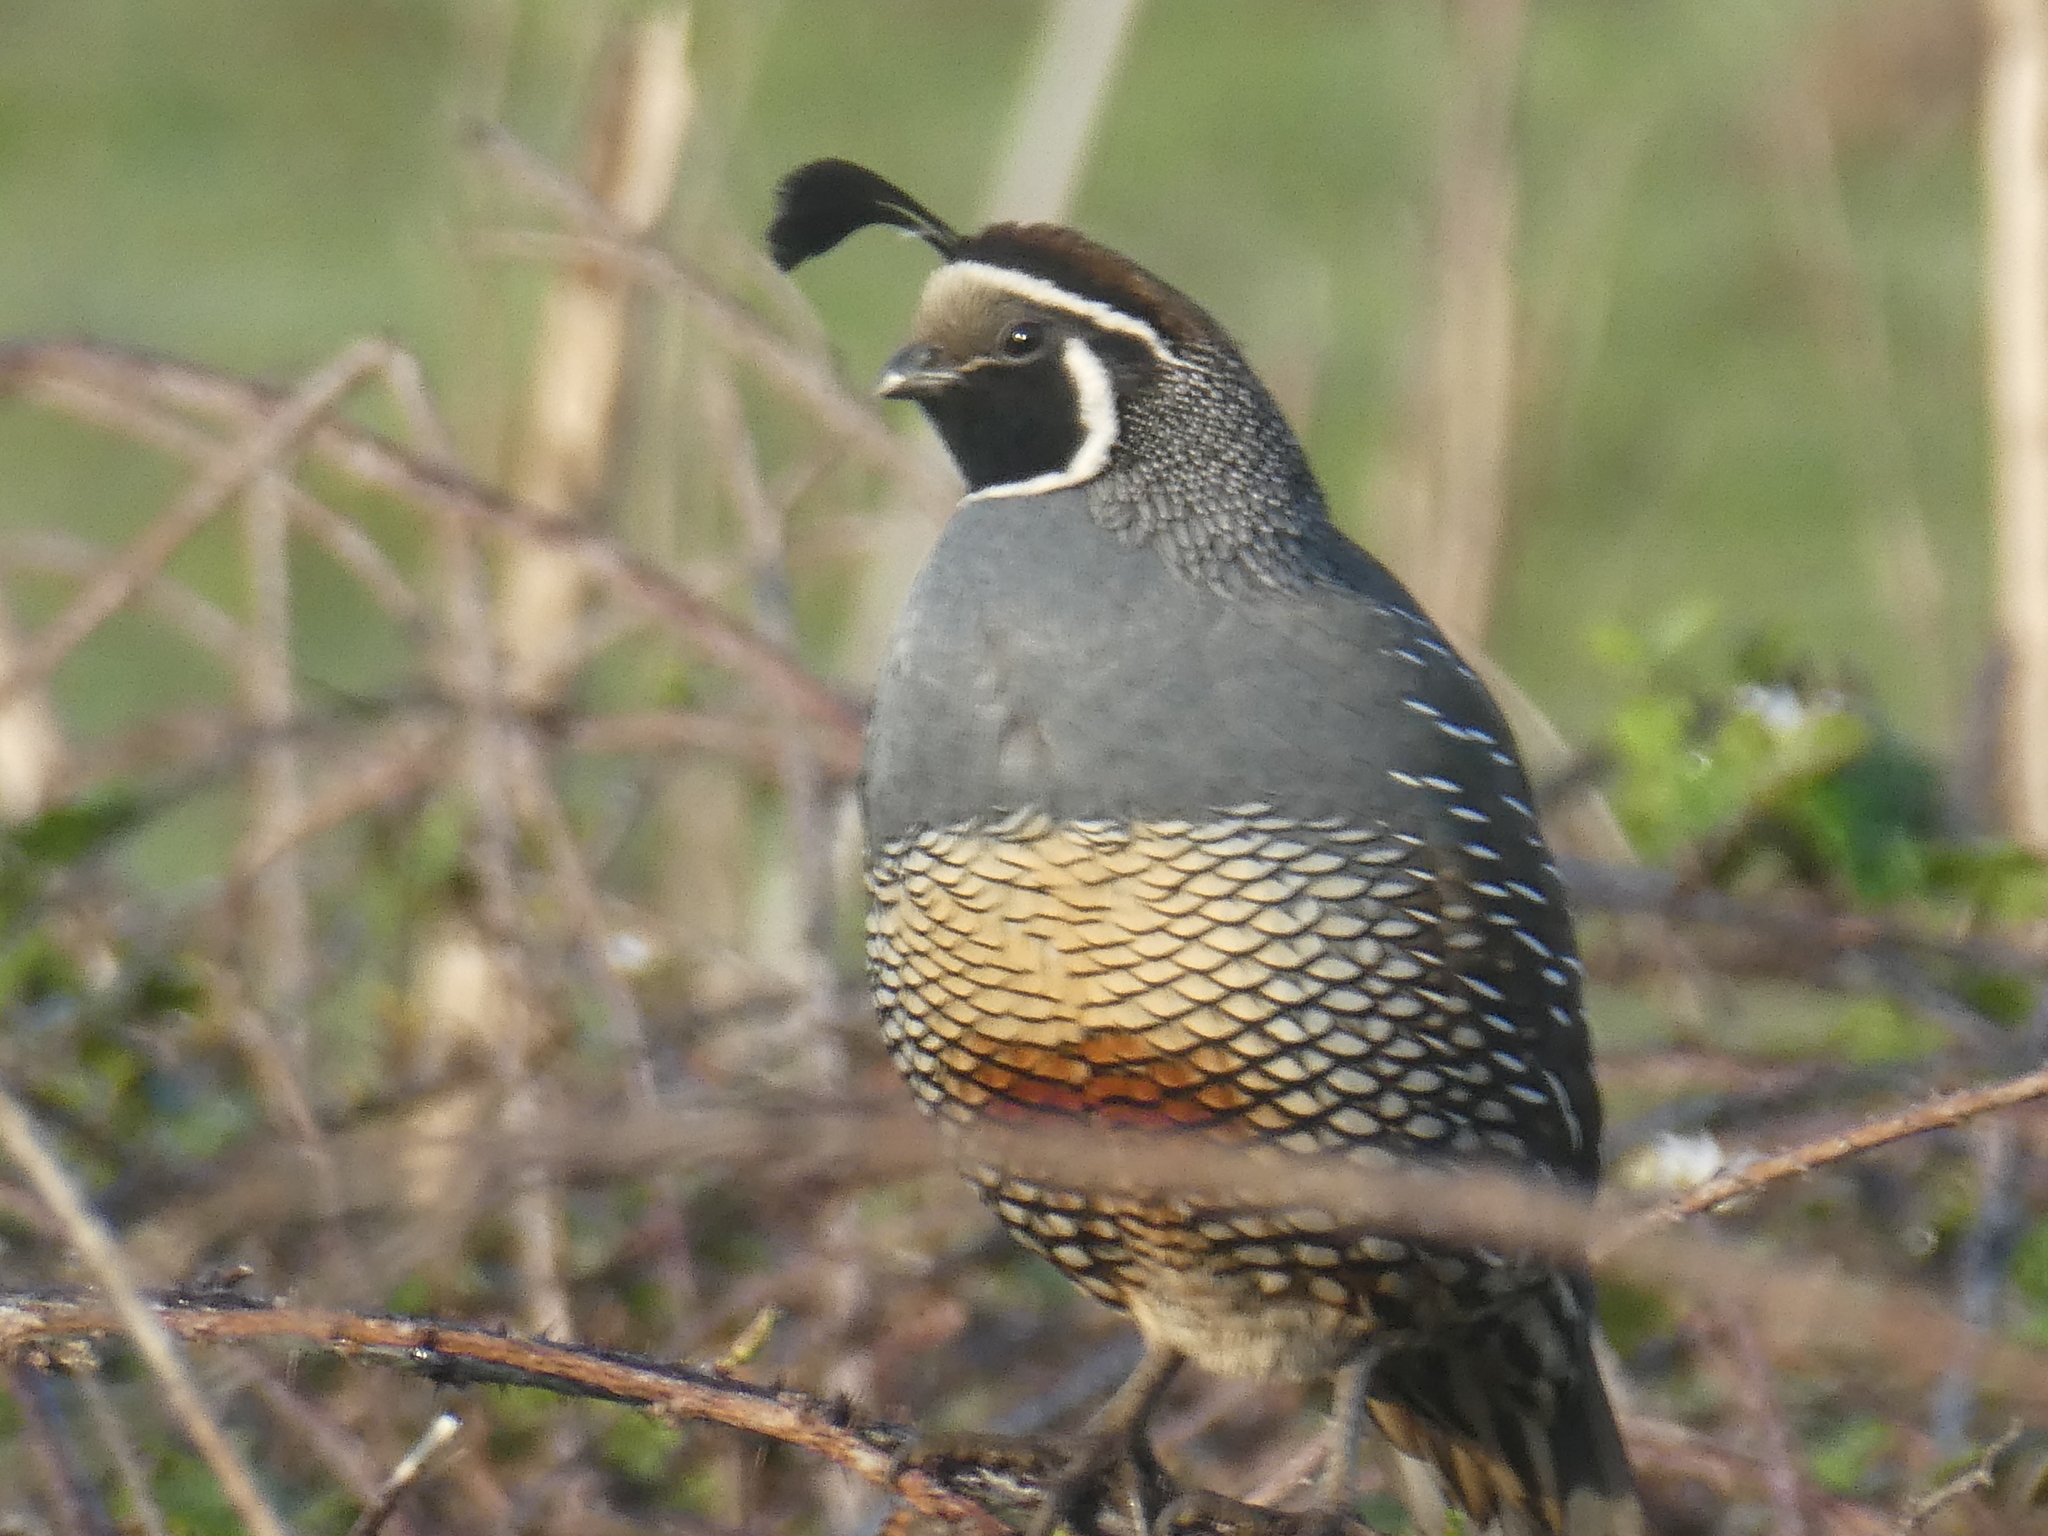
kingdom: Animalia
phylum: Chordata
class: Aves
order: Galliformes
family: Odontophoridae
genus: Callipepla
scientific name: Callipepla californica
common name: California quail
